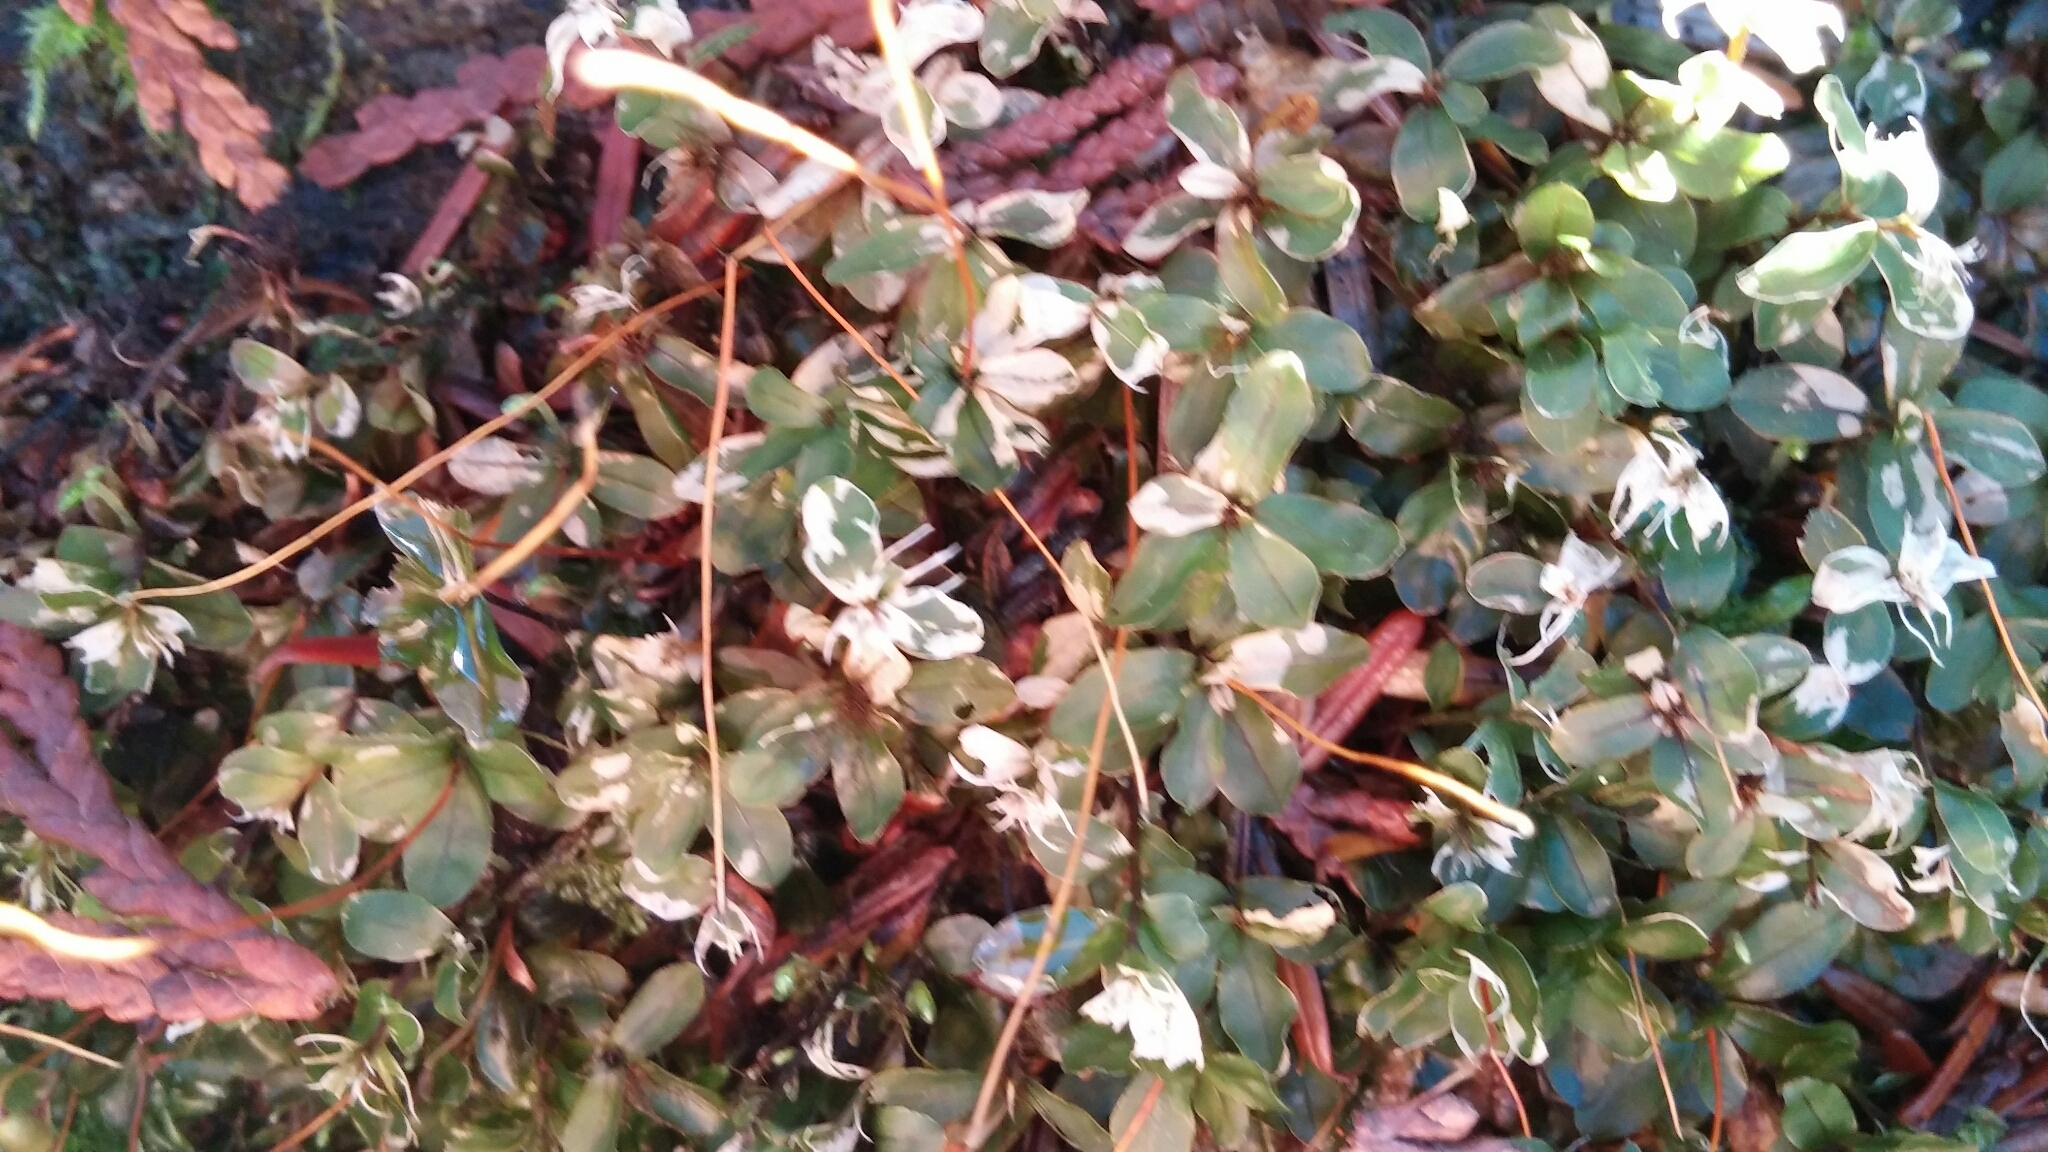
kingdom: Plantae
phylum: Bryophyta
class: Bryopsida
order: Bryales
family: Mniaceae
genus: Rhizomnium
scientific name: Rhizomnium glabrescens
